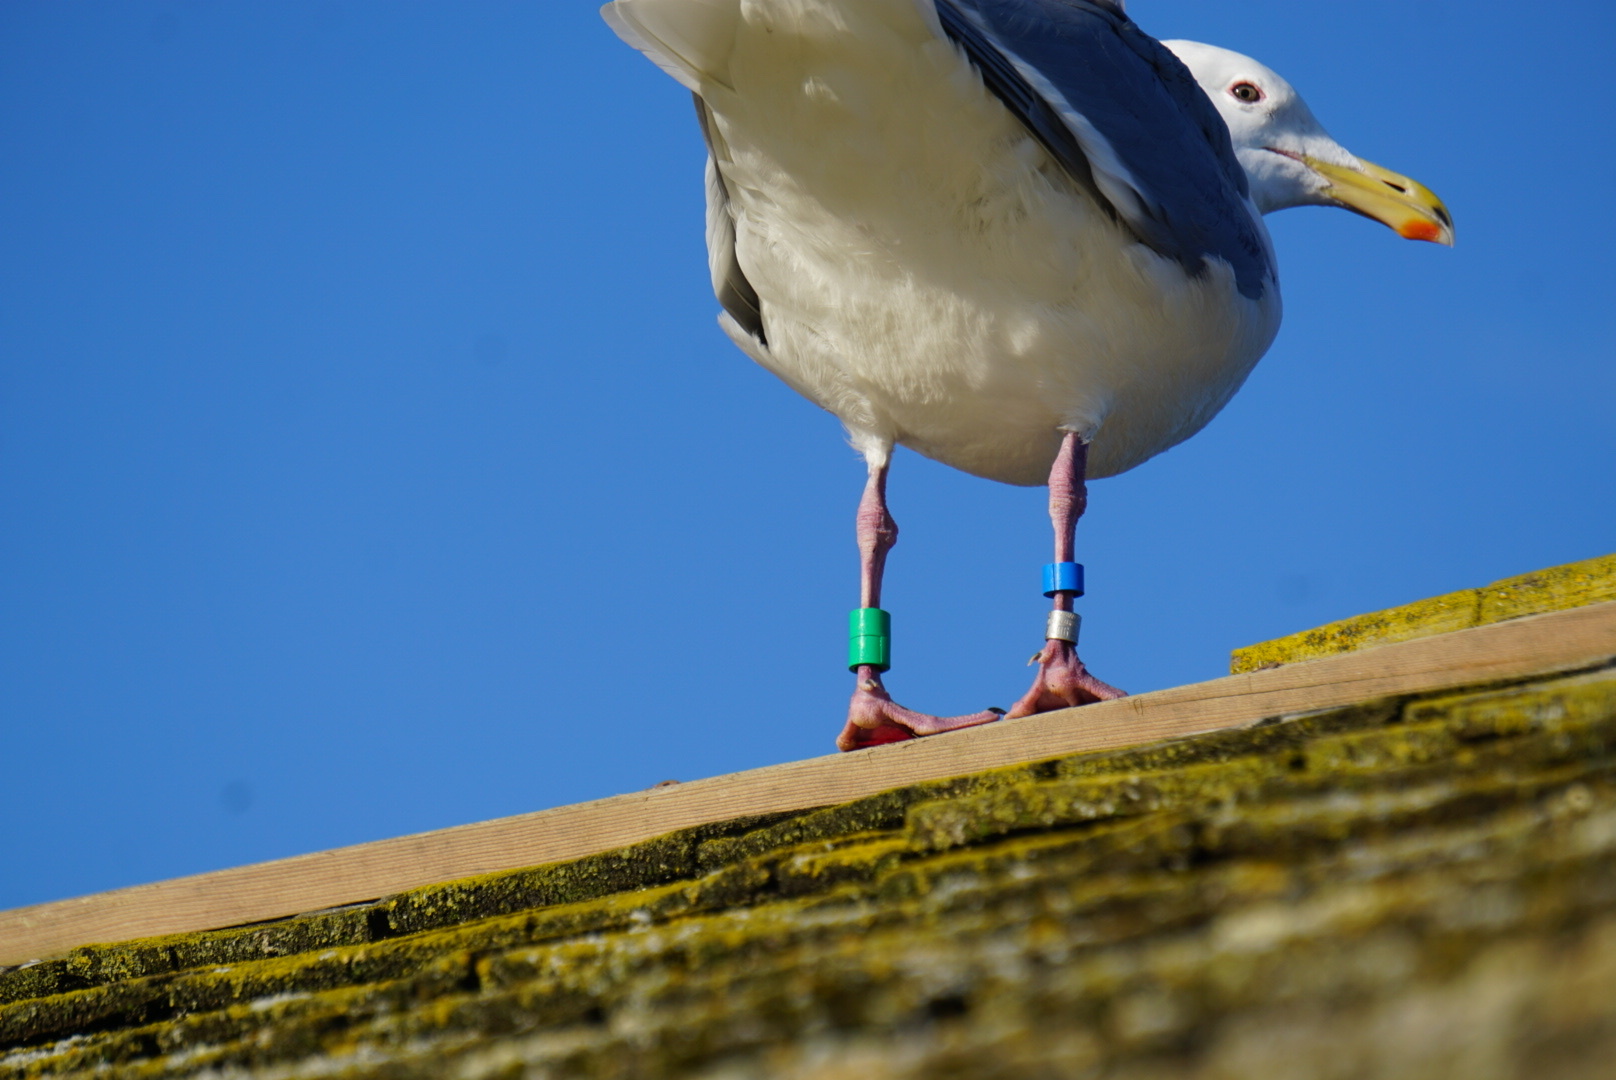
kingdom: Animalia
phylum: Chordata
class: Aves
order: Charadriiformes
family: Laridae
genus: Larus
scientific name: Larus
